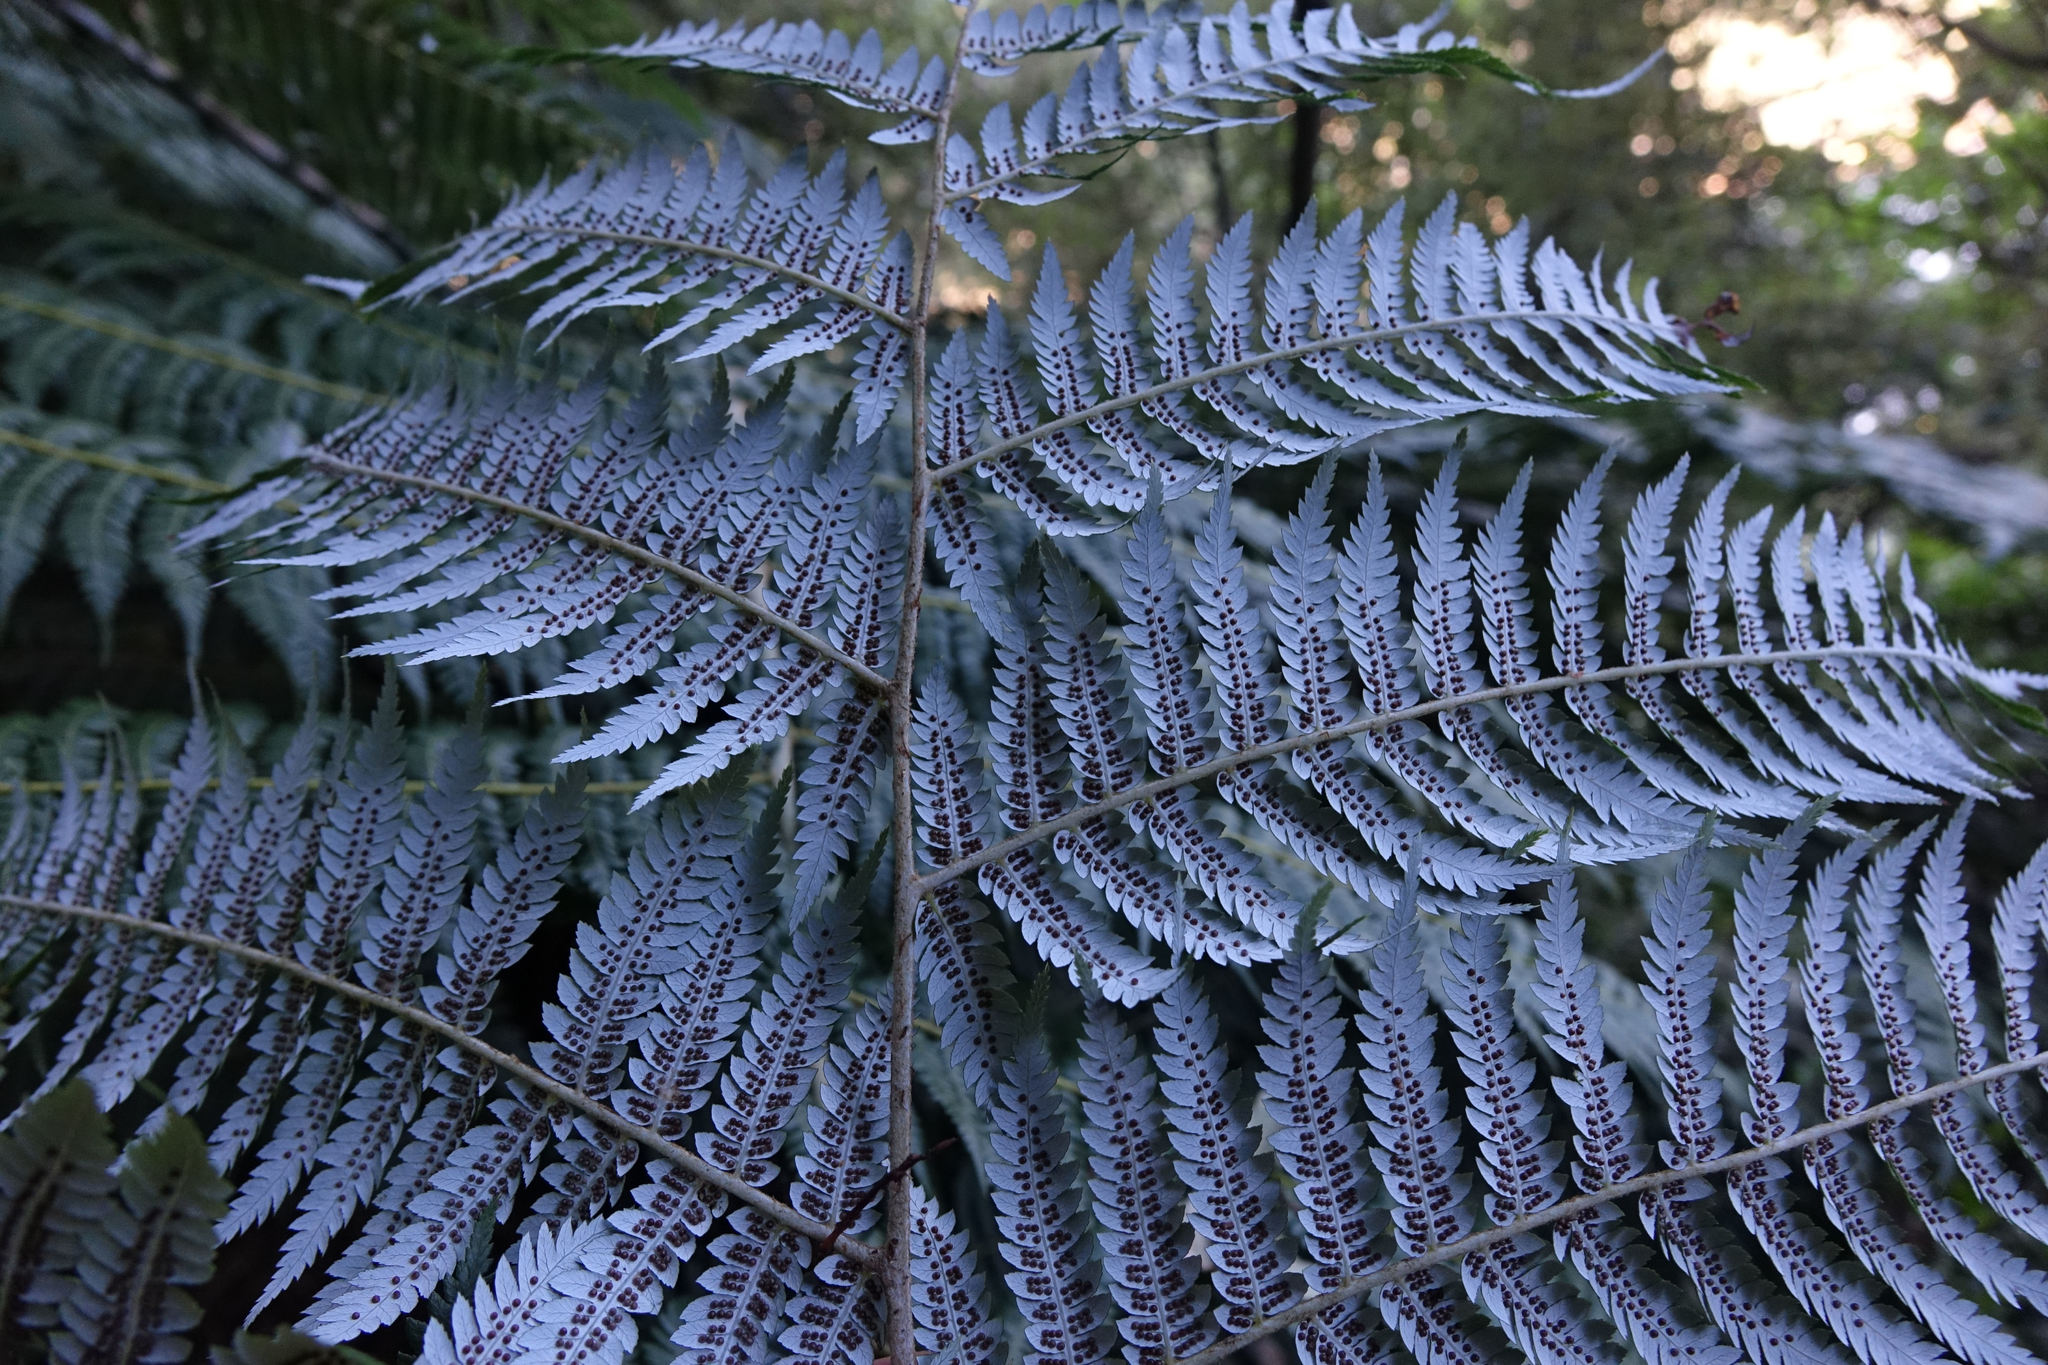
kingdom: Plantae
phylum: Tracheophyta
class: Polypodiopsida
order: Cyatheales
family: Cyatheaceae
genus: Alsophila
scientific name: Alsophila dealbata
